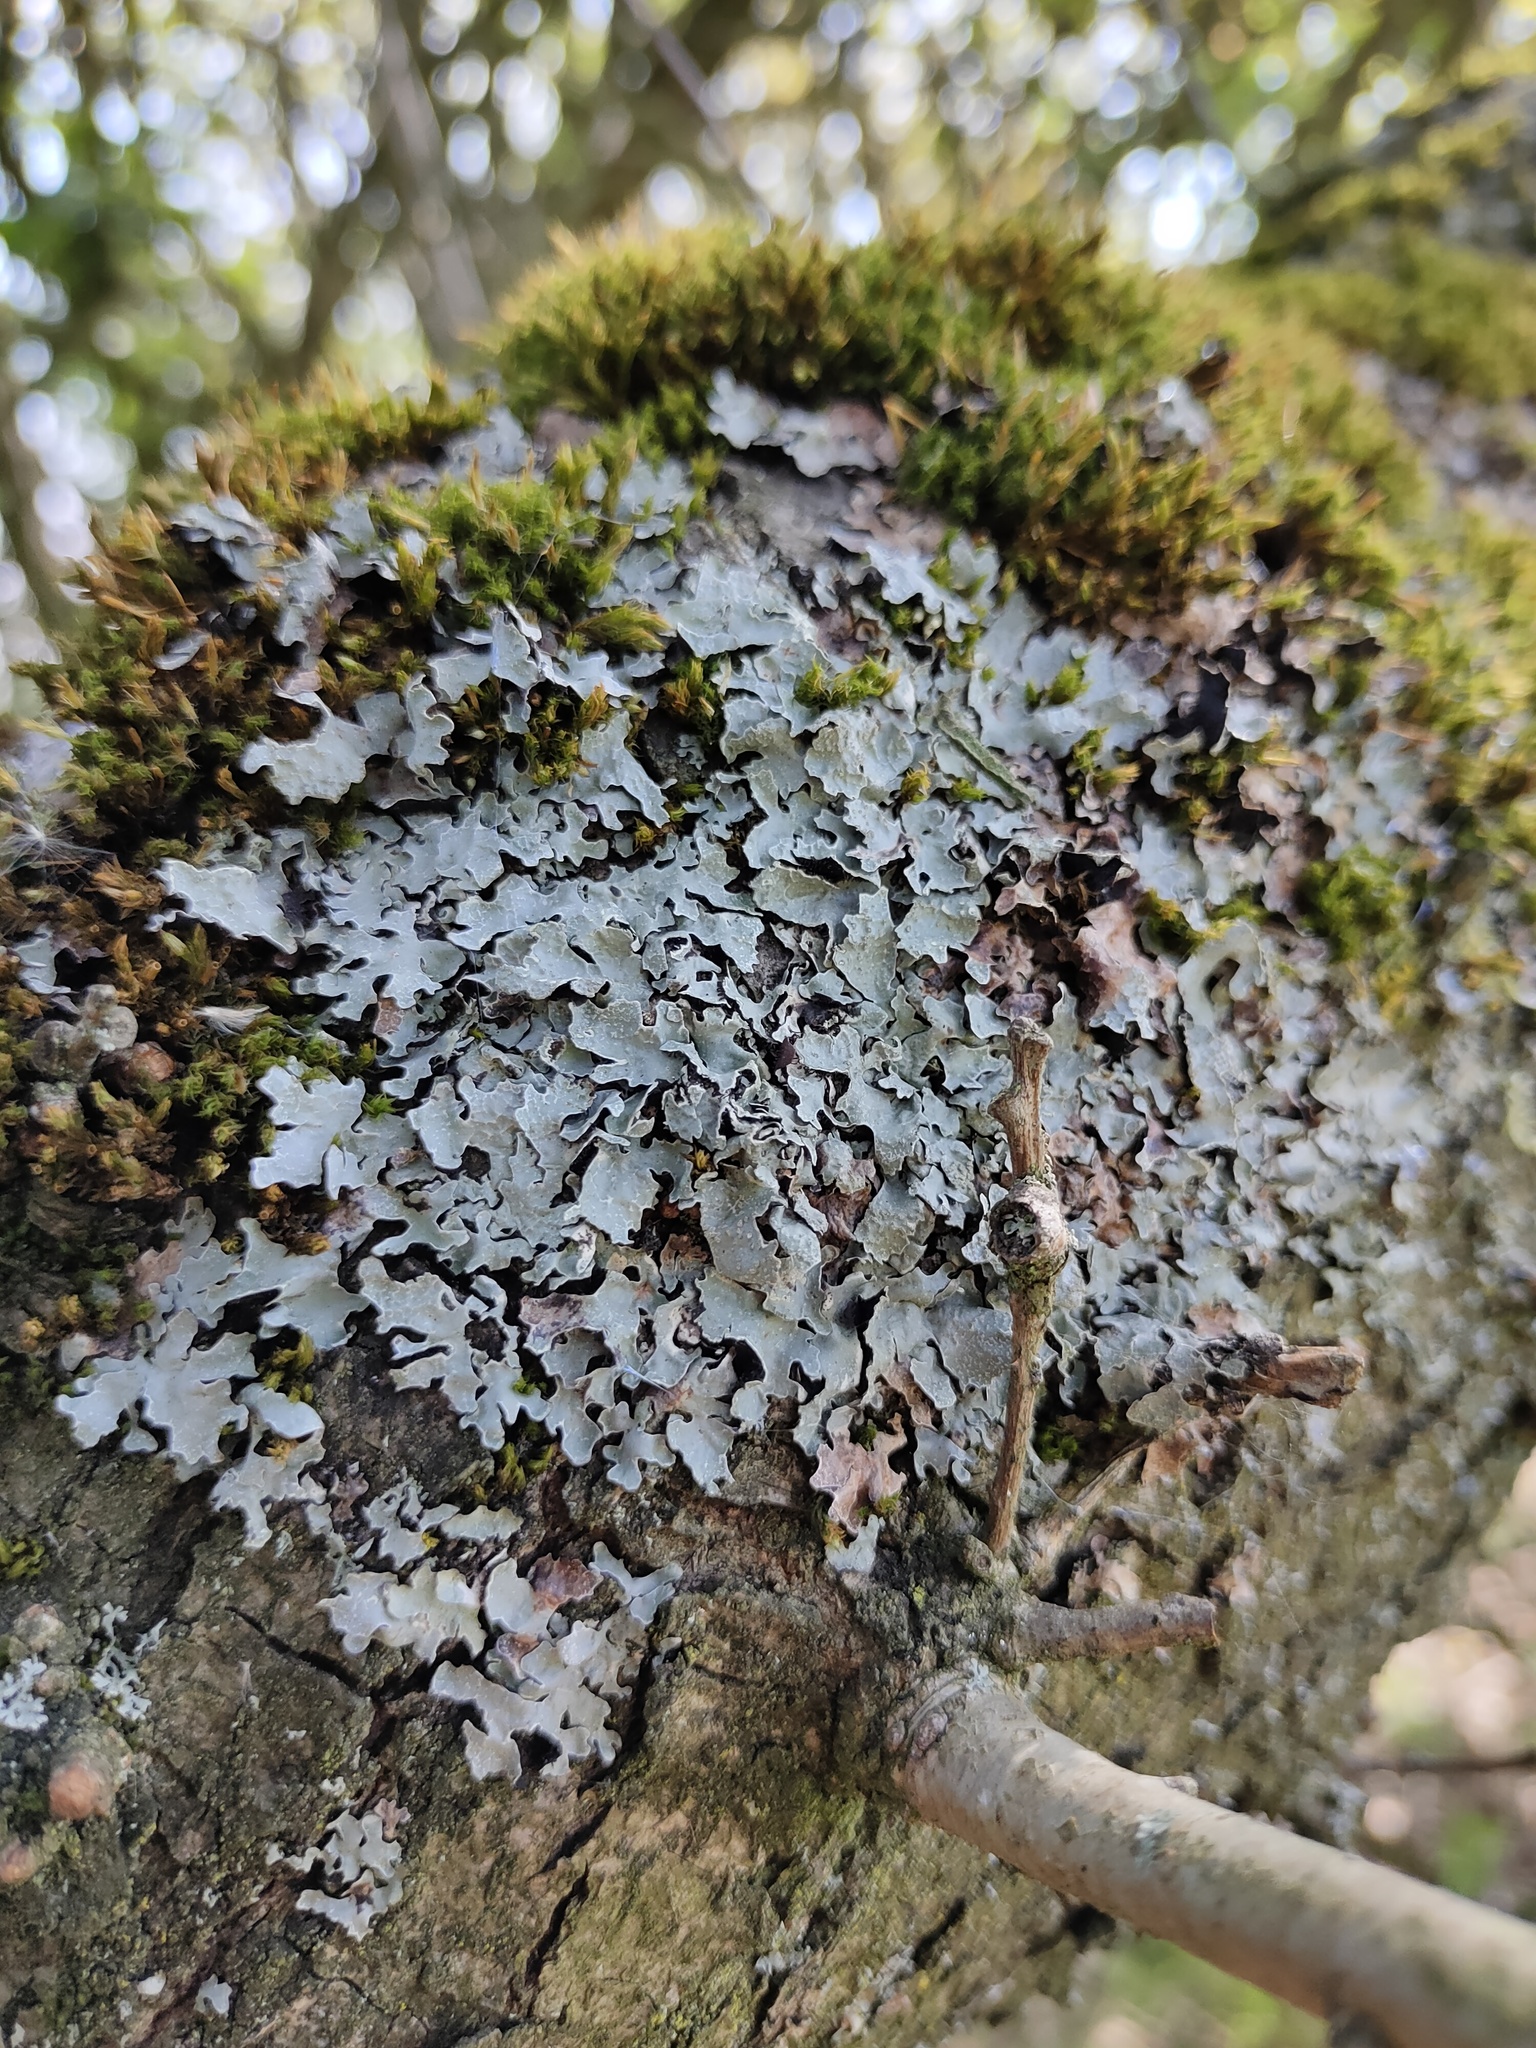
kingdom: Fungi
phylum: Ascomycota
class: Lecanoromycetes
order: Lecanorales
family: Parmeliaceae
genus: Parmelia
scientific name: Parmelia sulcata
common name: Netted shield lichen
